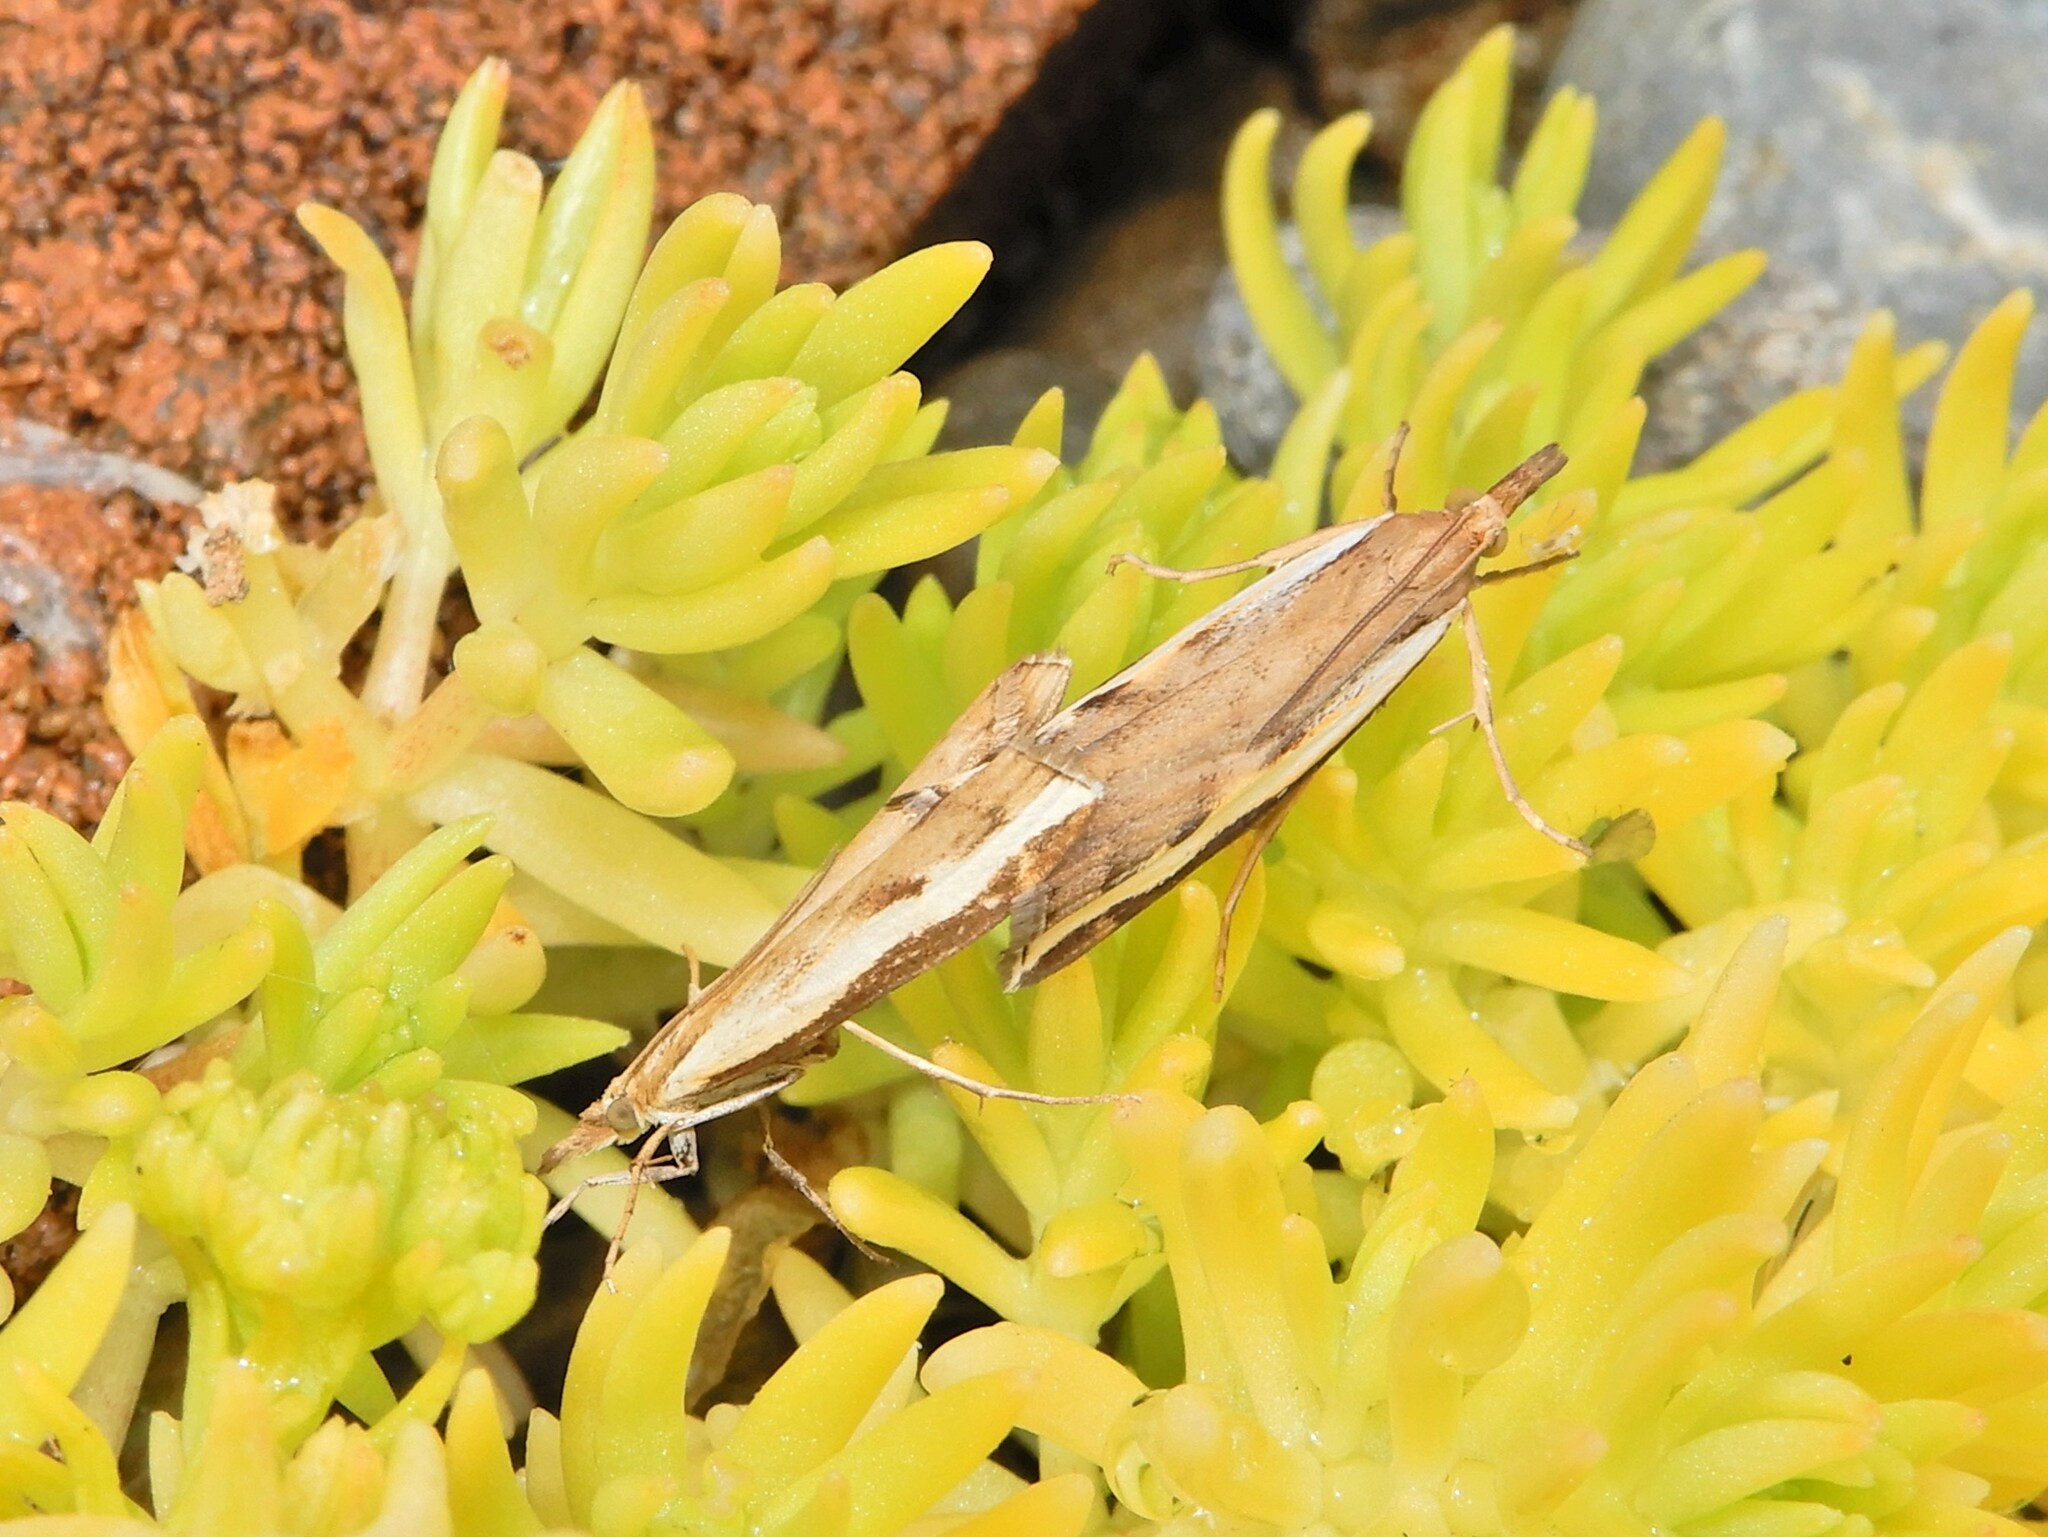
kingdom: Animalia
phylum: Arthropoda
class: Insecta
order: Lepidoptera
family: Crambidae
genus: Orocrambus
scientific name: Orocrambus flexuosellus
